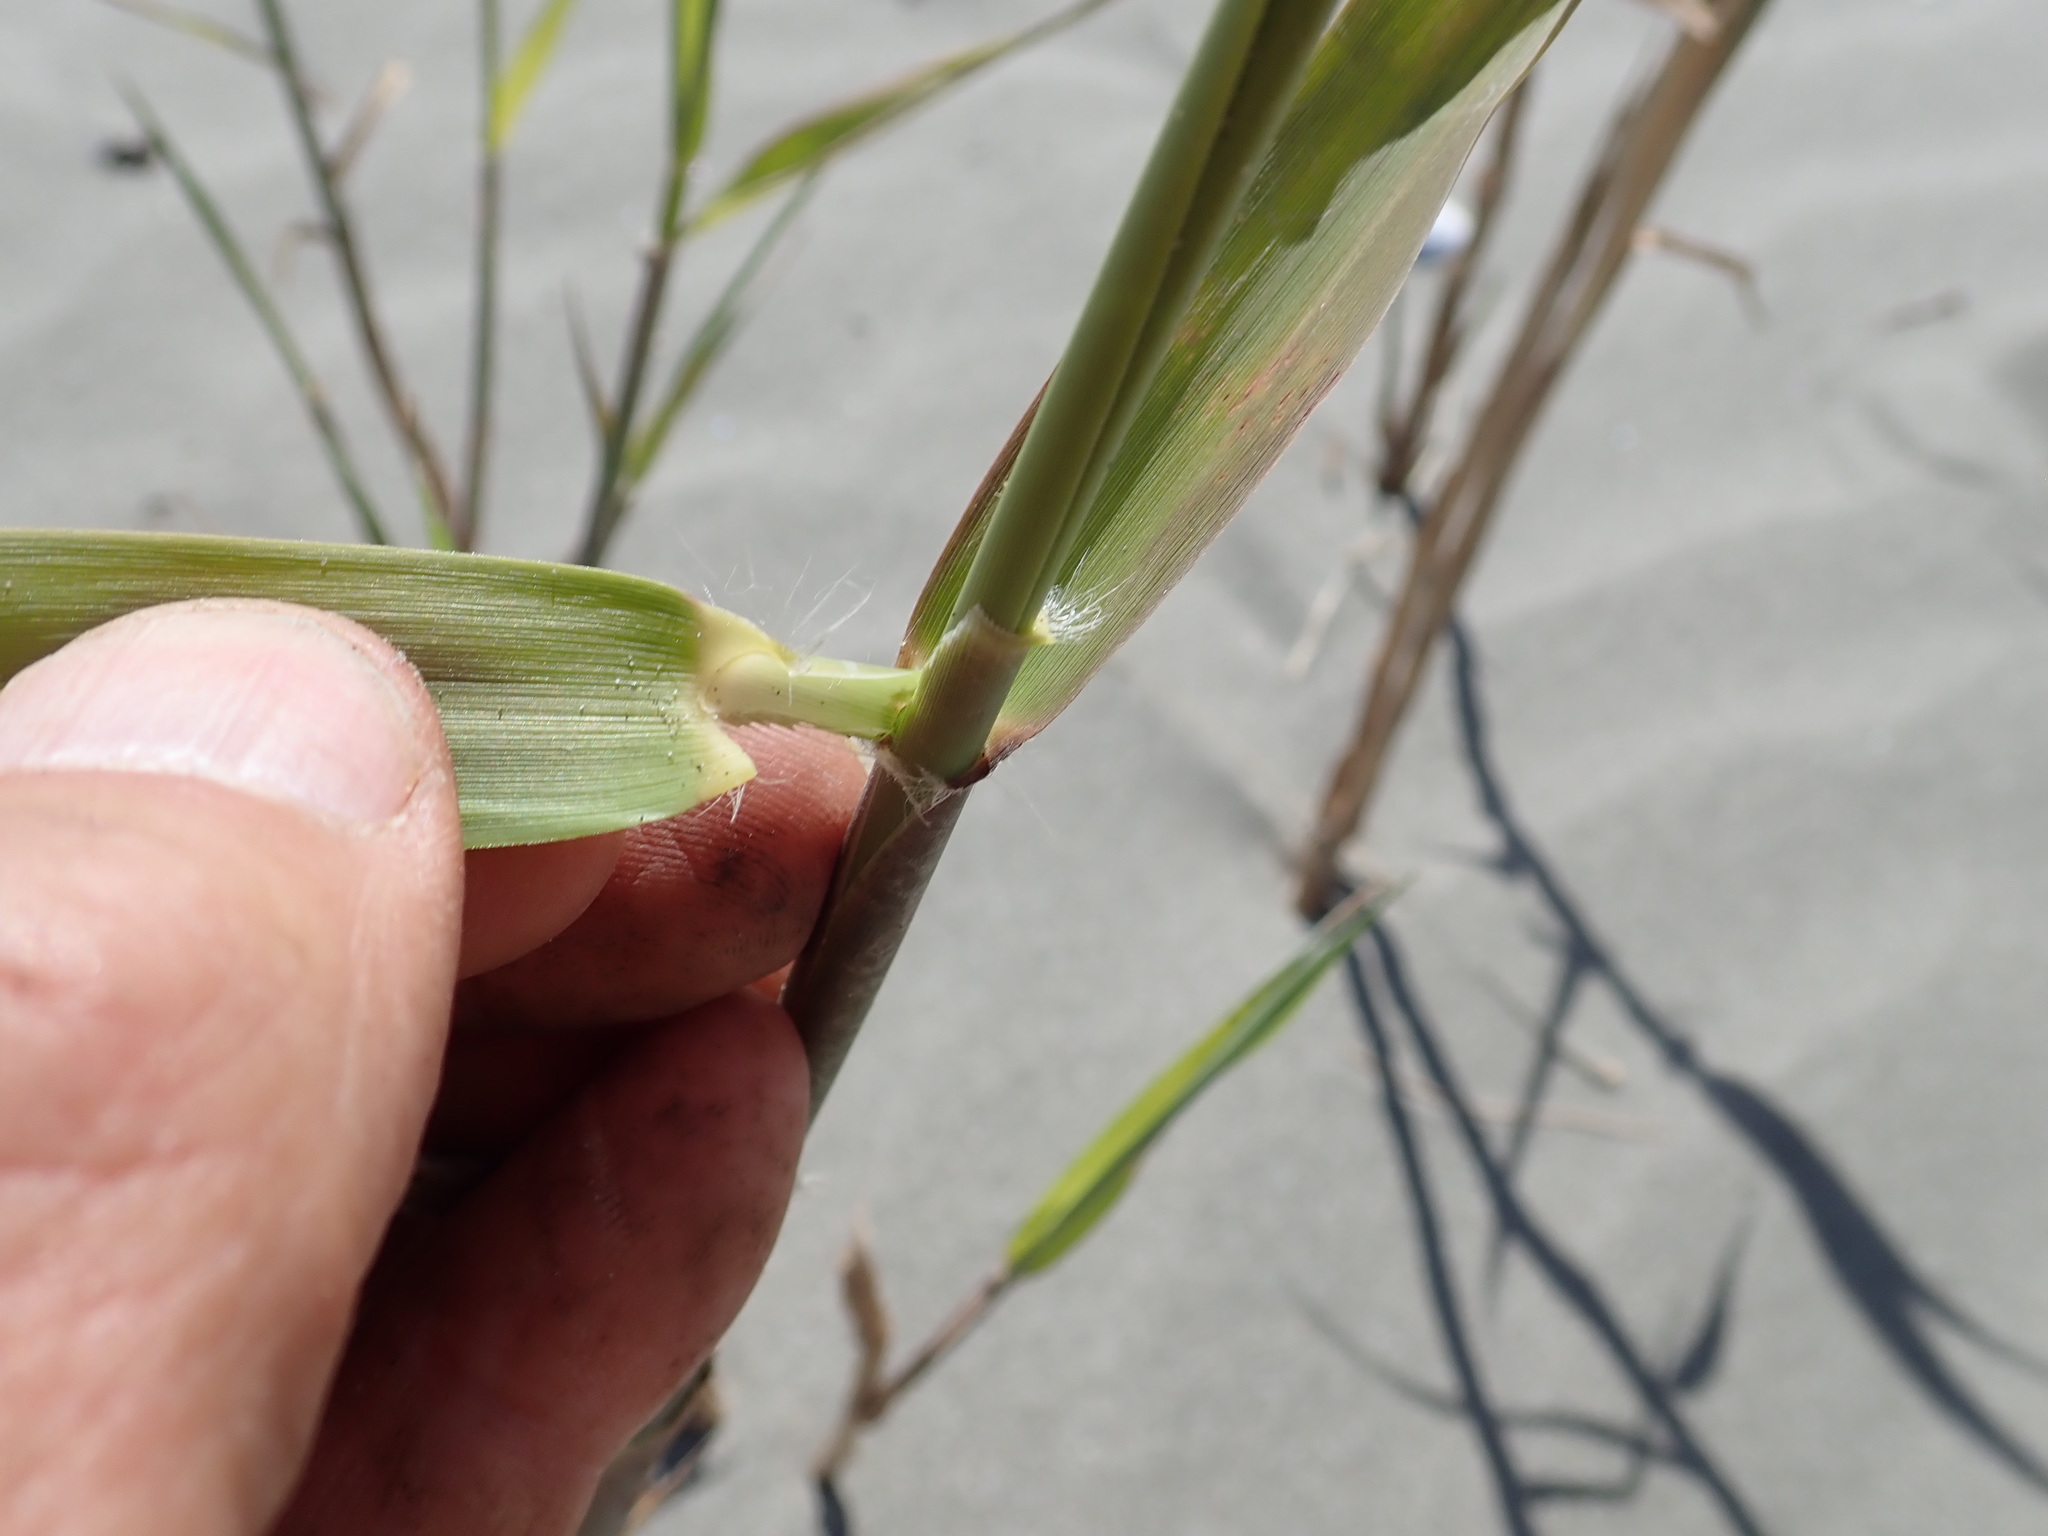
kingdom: Plantae
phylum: Tracheophyta
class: Liliopsida
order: Poales
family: Poaceae
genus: Phragmites
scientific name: Phragmites karka
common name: Tropical reed
